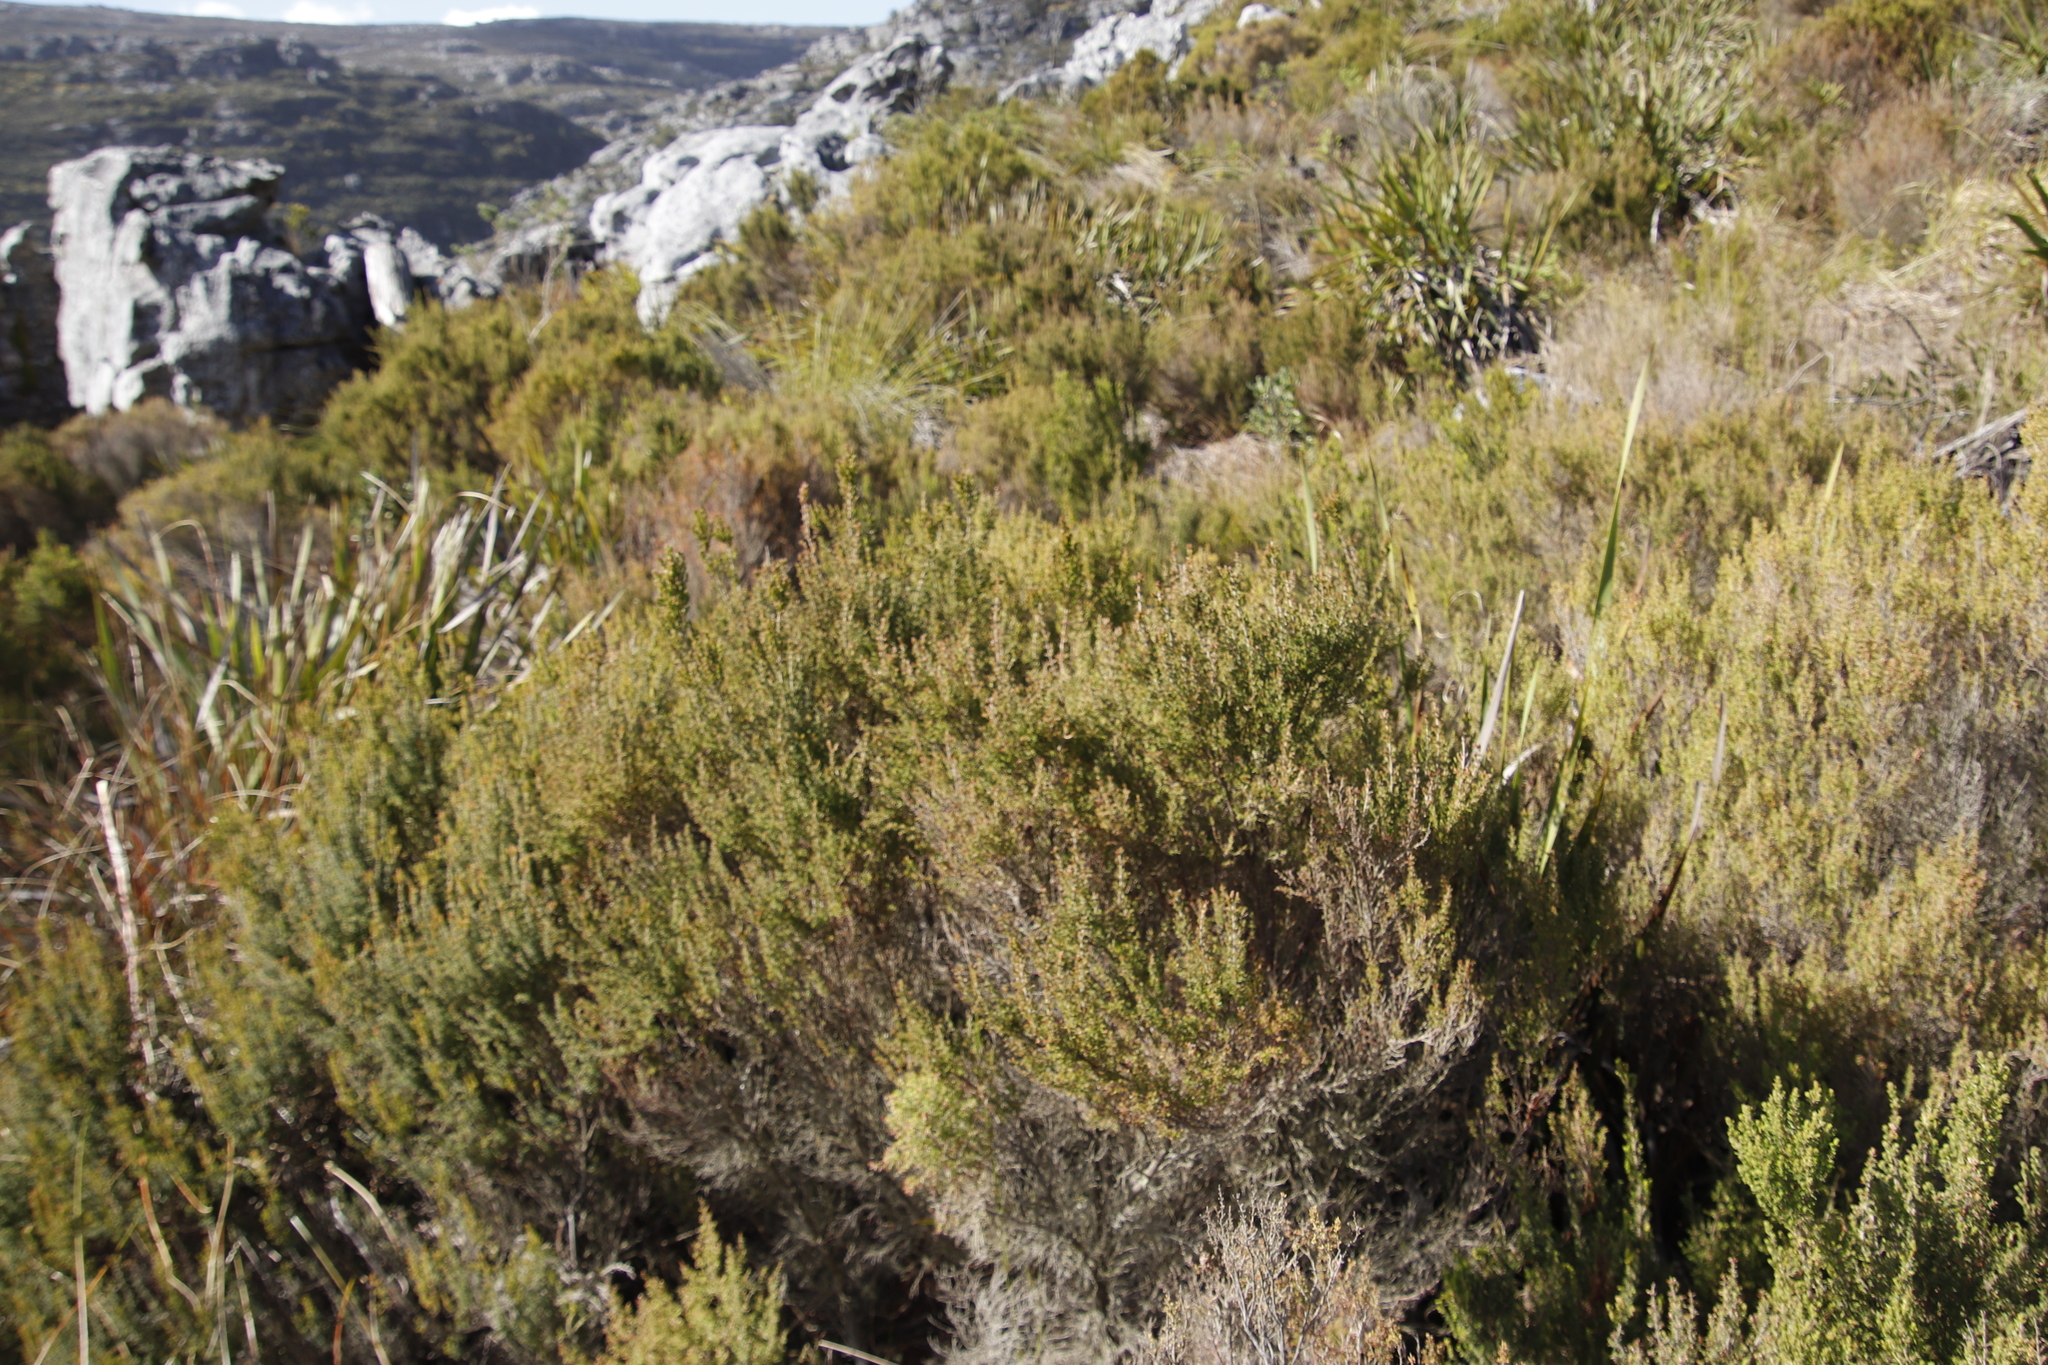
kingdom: Plantae
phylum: Tracheophyta
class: Magnoliopsida
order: Ericales
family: Ericaceae
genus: Erica
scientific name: Erica hispidula
